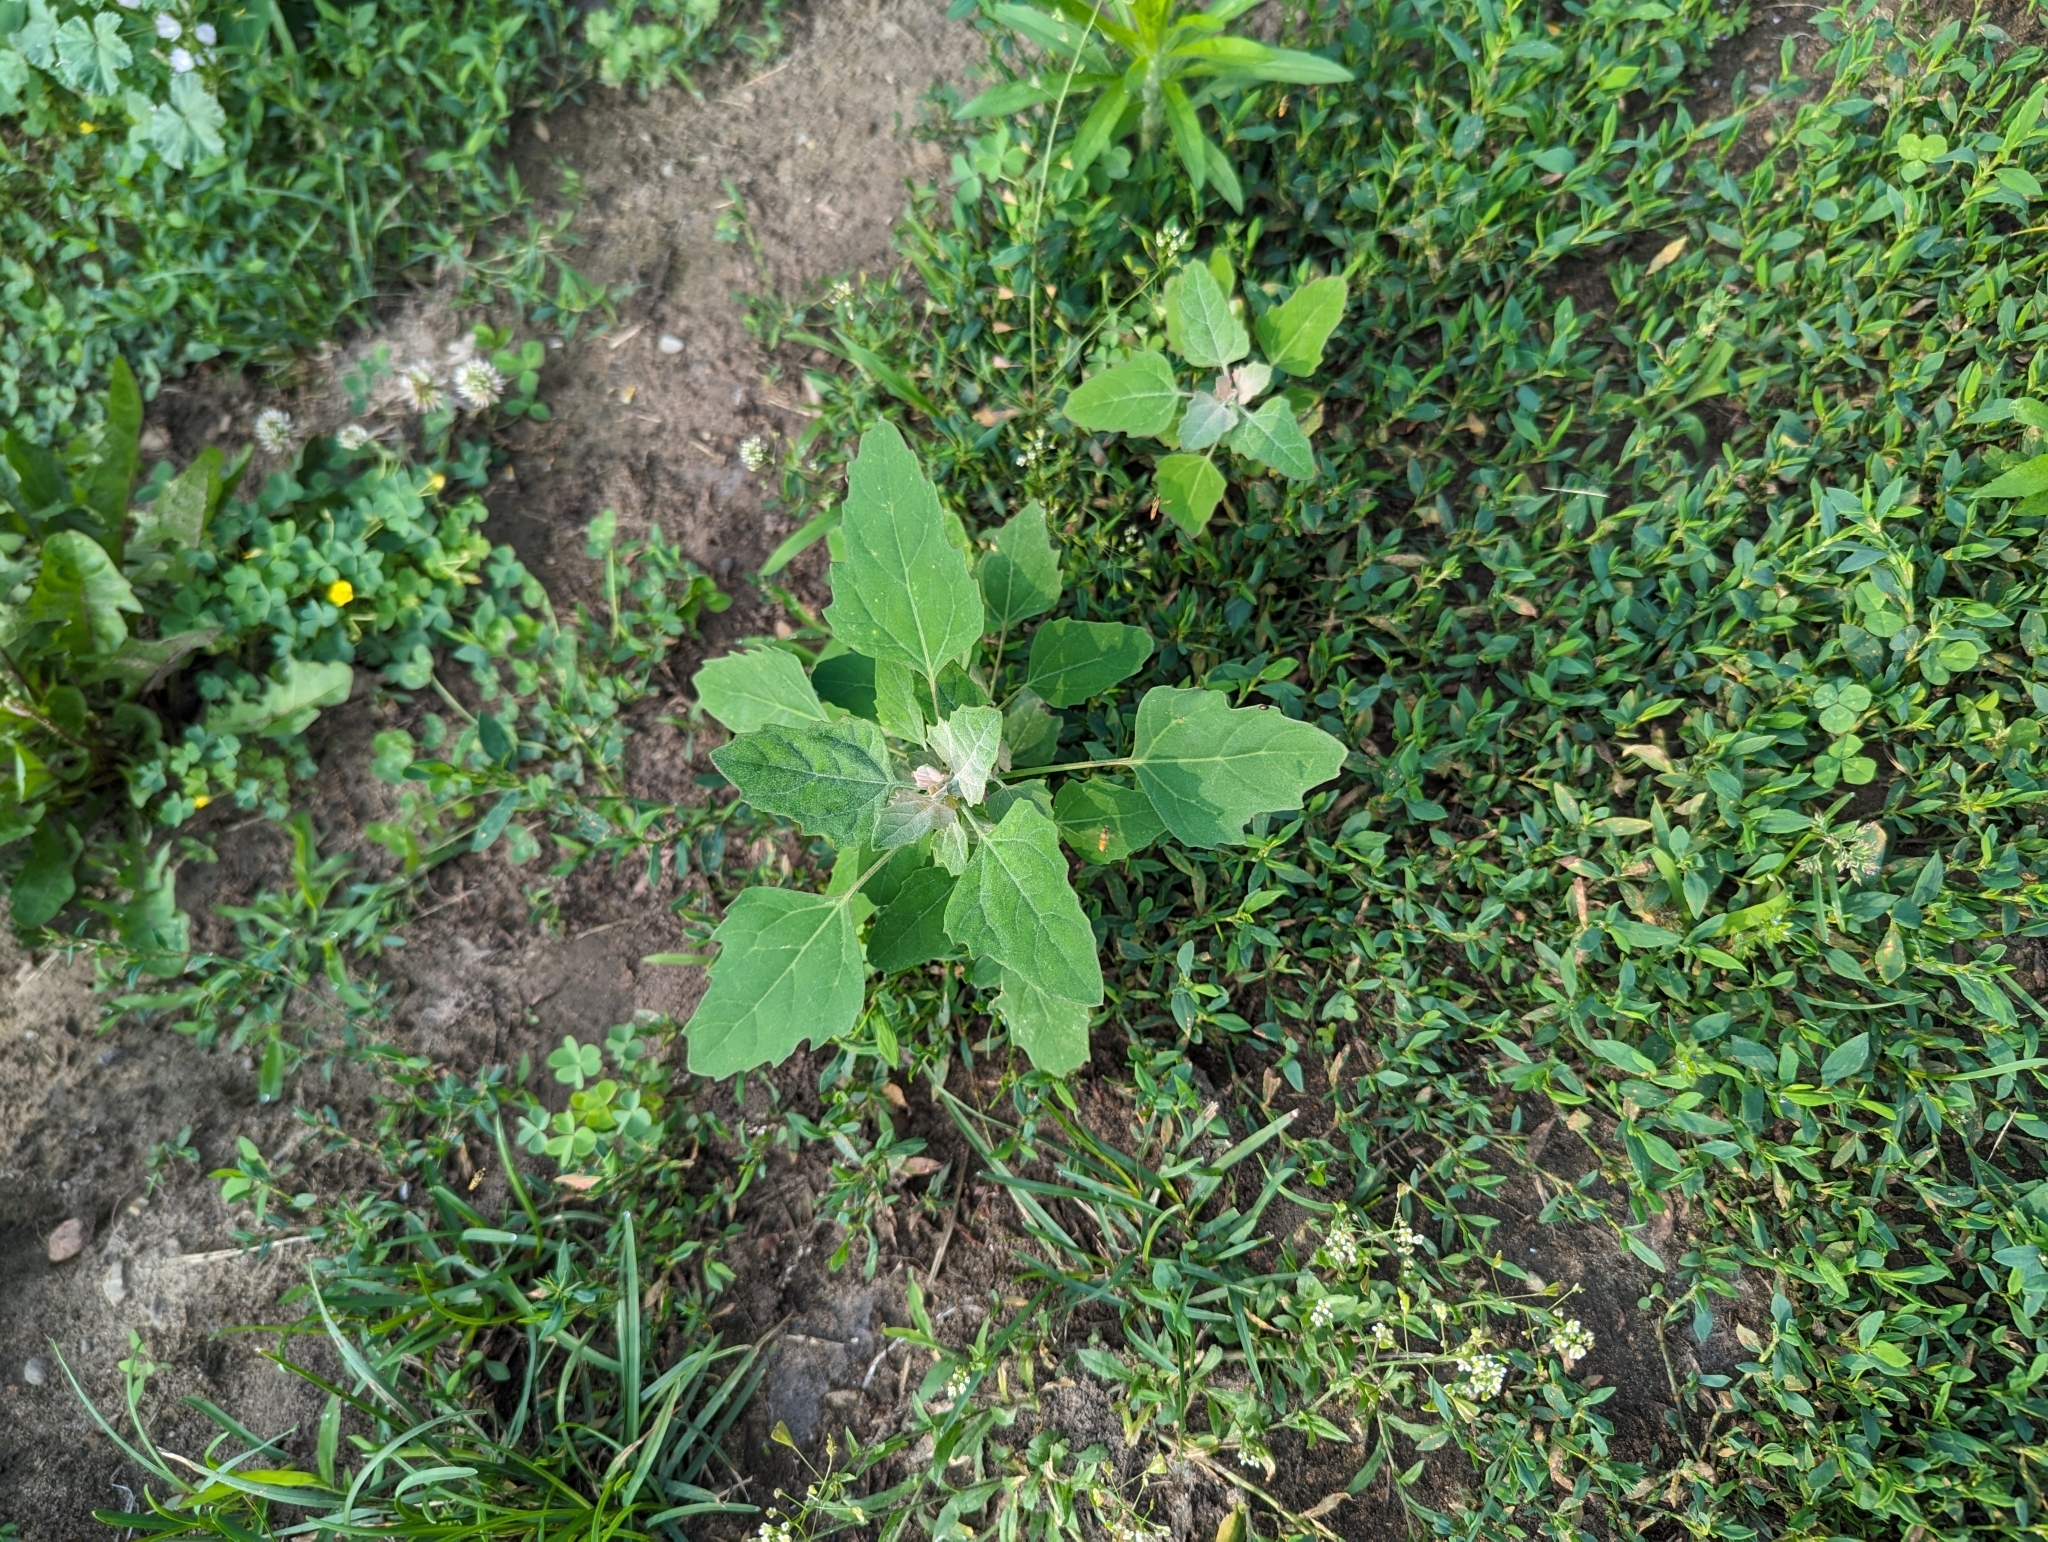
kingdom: Plantae
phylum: Tracheophyta
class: Magnoliopsida
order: Caryophyllales
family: Amaranthaceae
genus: Chenopodium
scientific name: Chenopodium album
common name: Fat-hen
